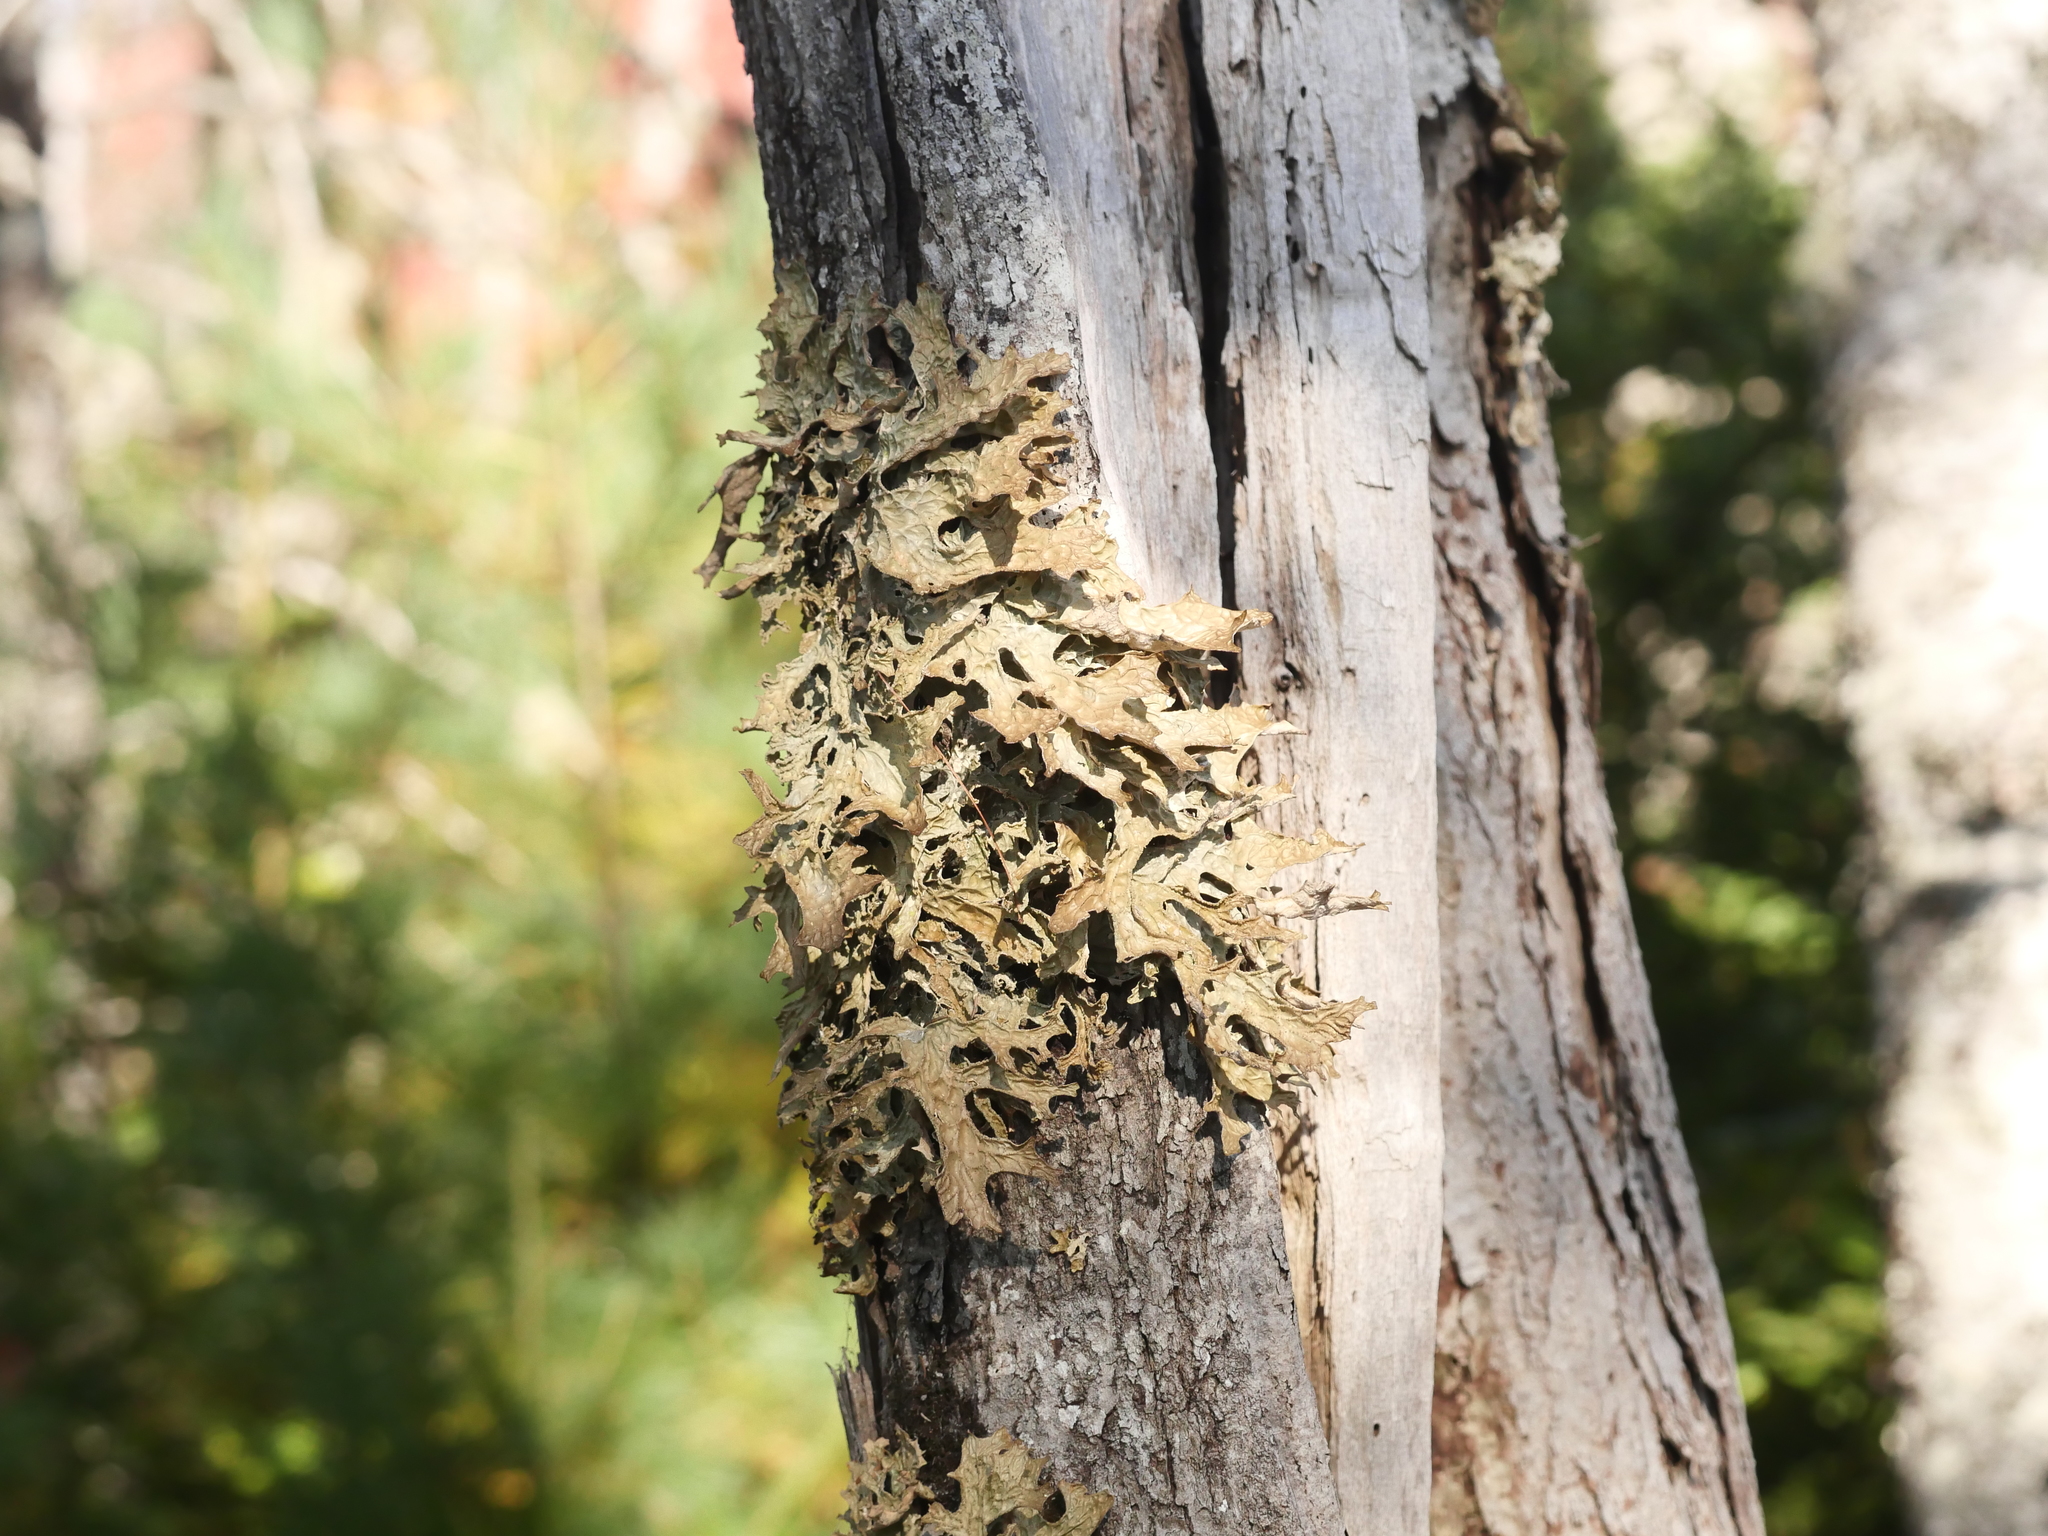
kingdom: Fungi
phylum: Ascomycota
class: Lecanoromycetes
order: Peltigerales
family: Lobariaceae
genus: Lobaria
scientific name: Lobaria pulmonaria
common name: Lungwort
